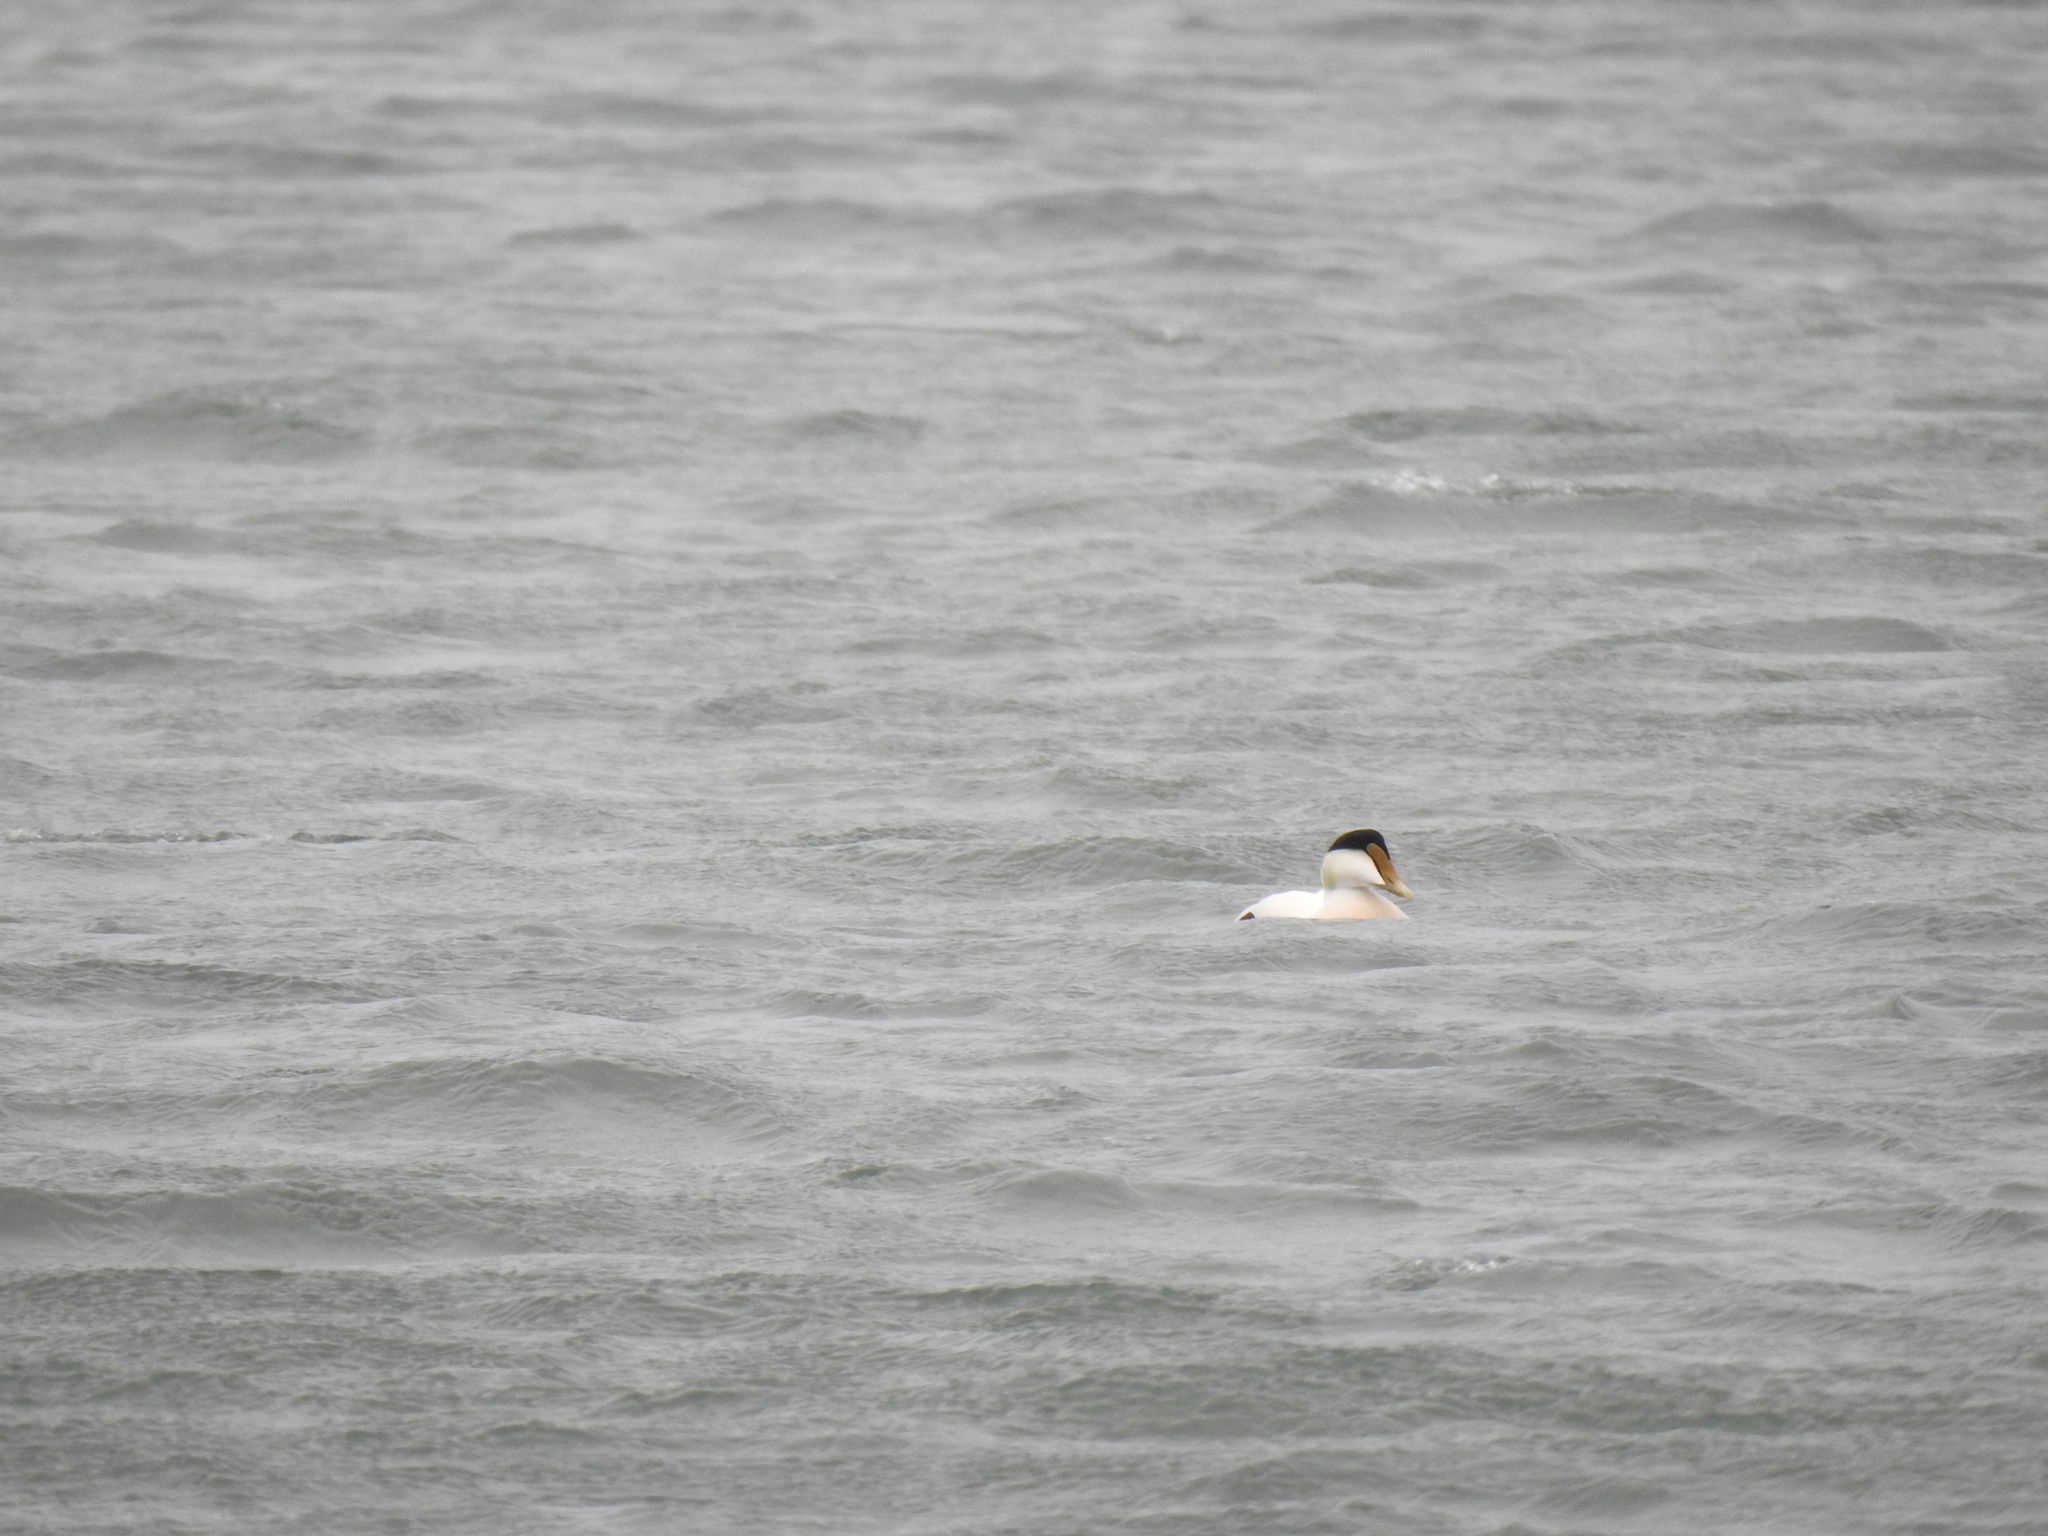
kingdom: Animalia
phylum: Chordata
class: Aves
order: Anseriformes
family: Anatidae
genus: Somateria
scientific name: Somateria mollissima
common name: Common eider
